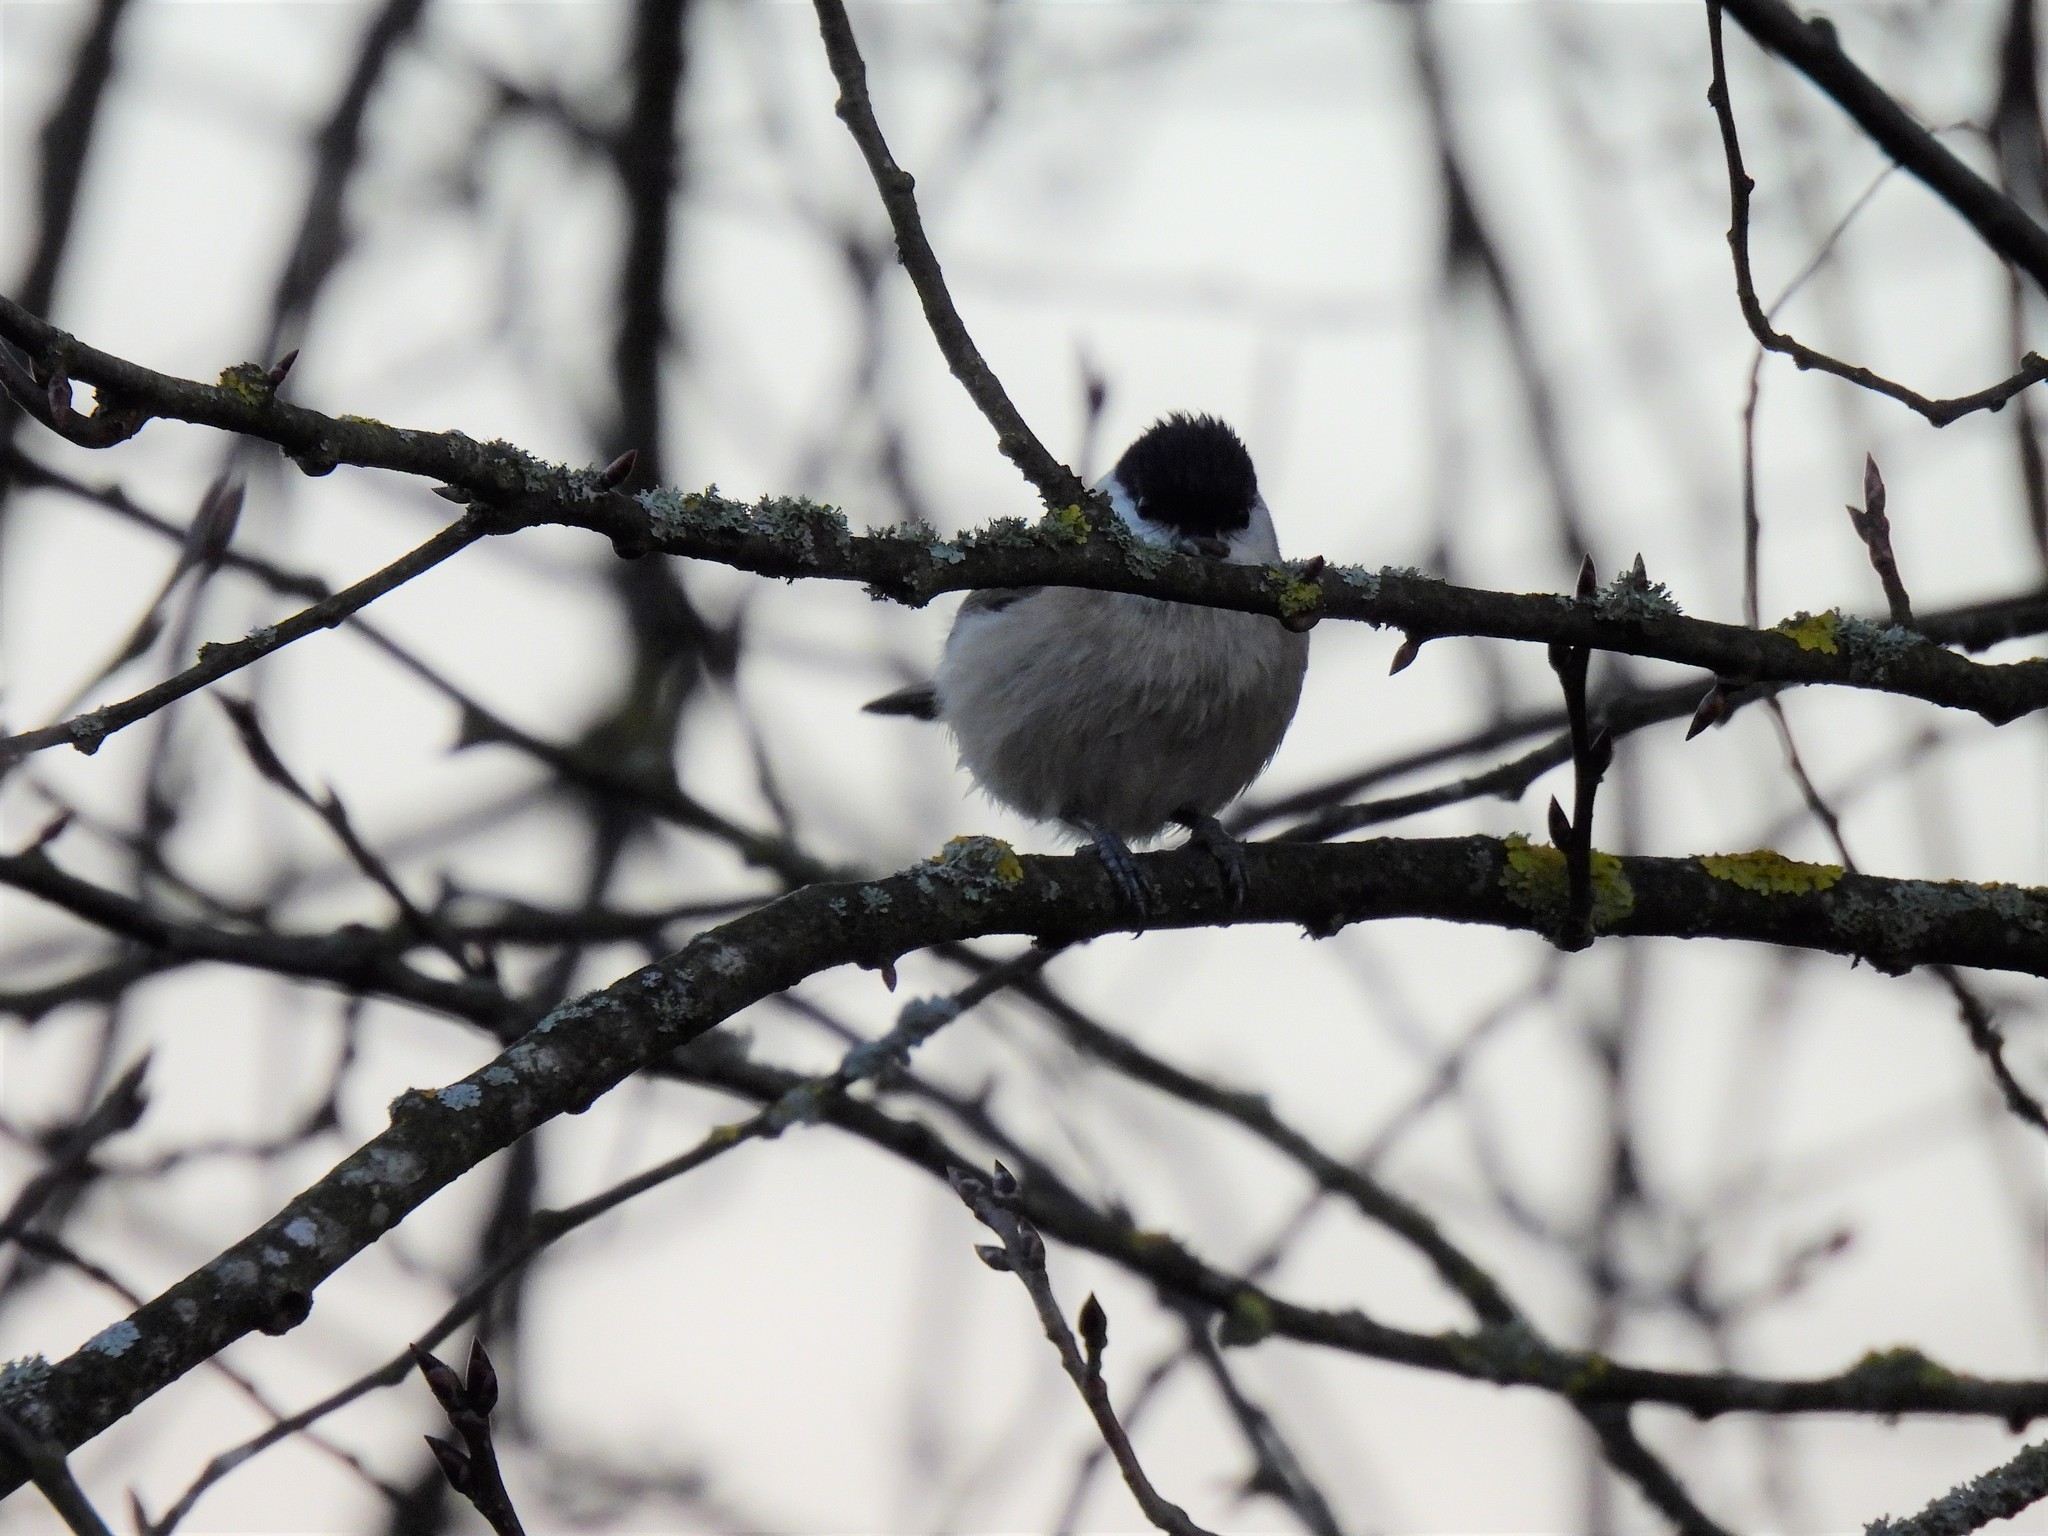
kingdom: Animalia
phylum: Chordata
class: Aves
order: Passeriformes
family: Paridae
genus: Poecile
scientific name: Poecile palustris
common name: Marsh tit
